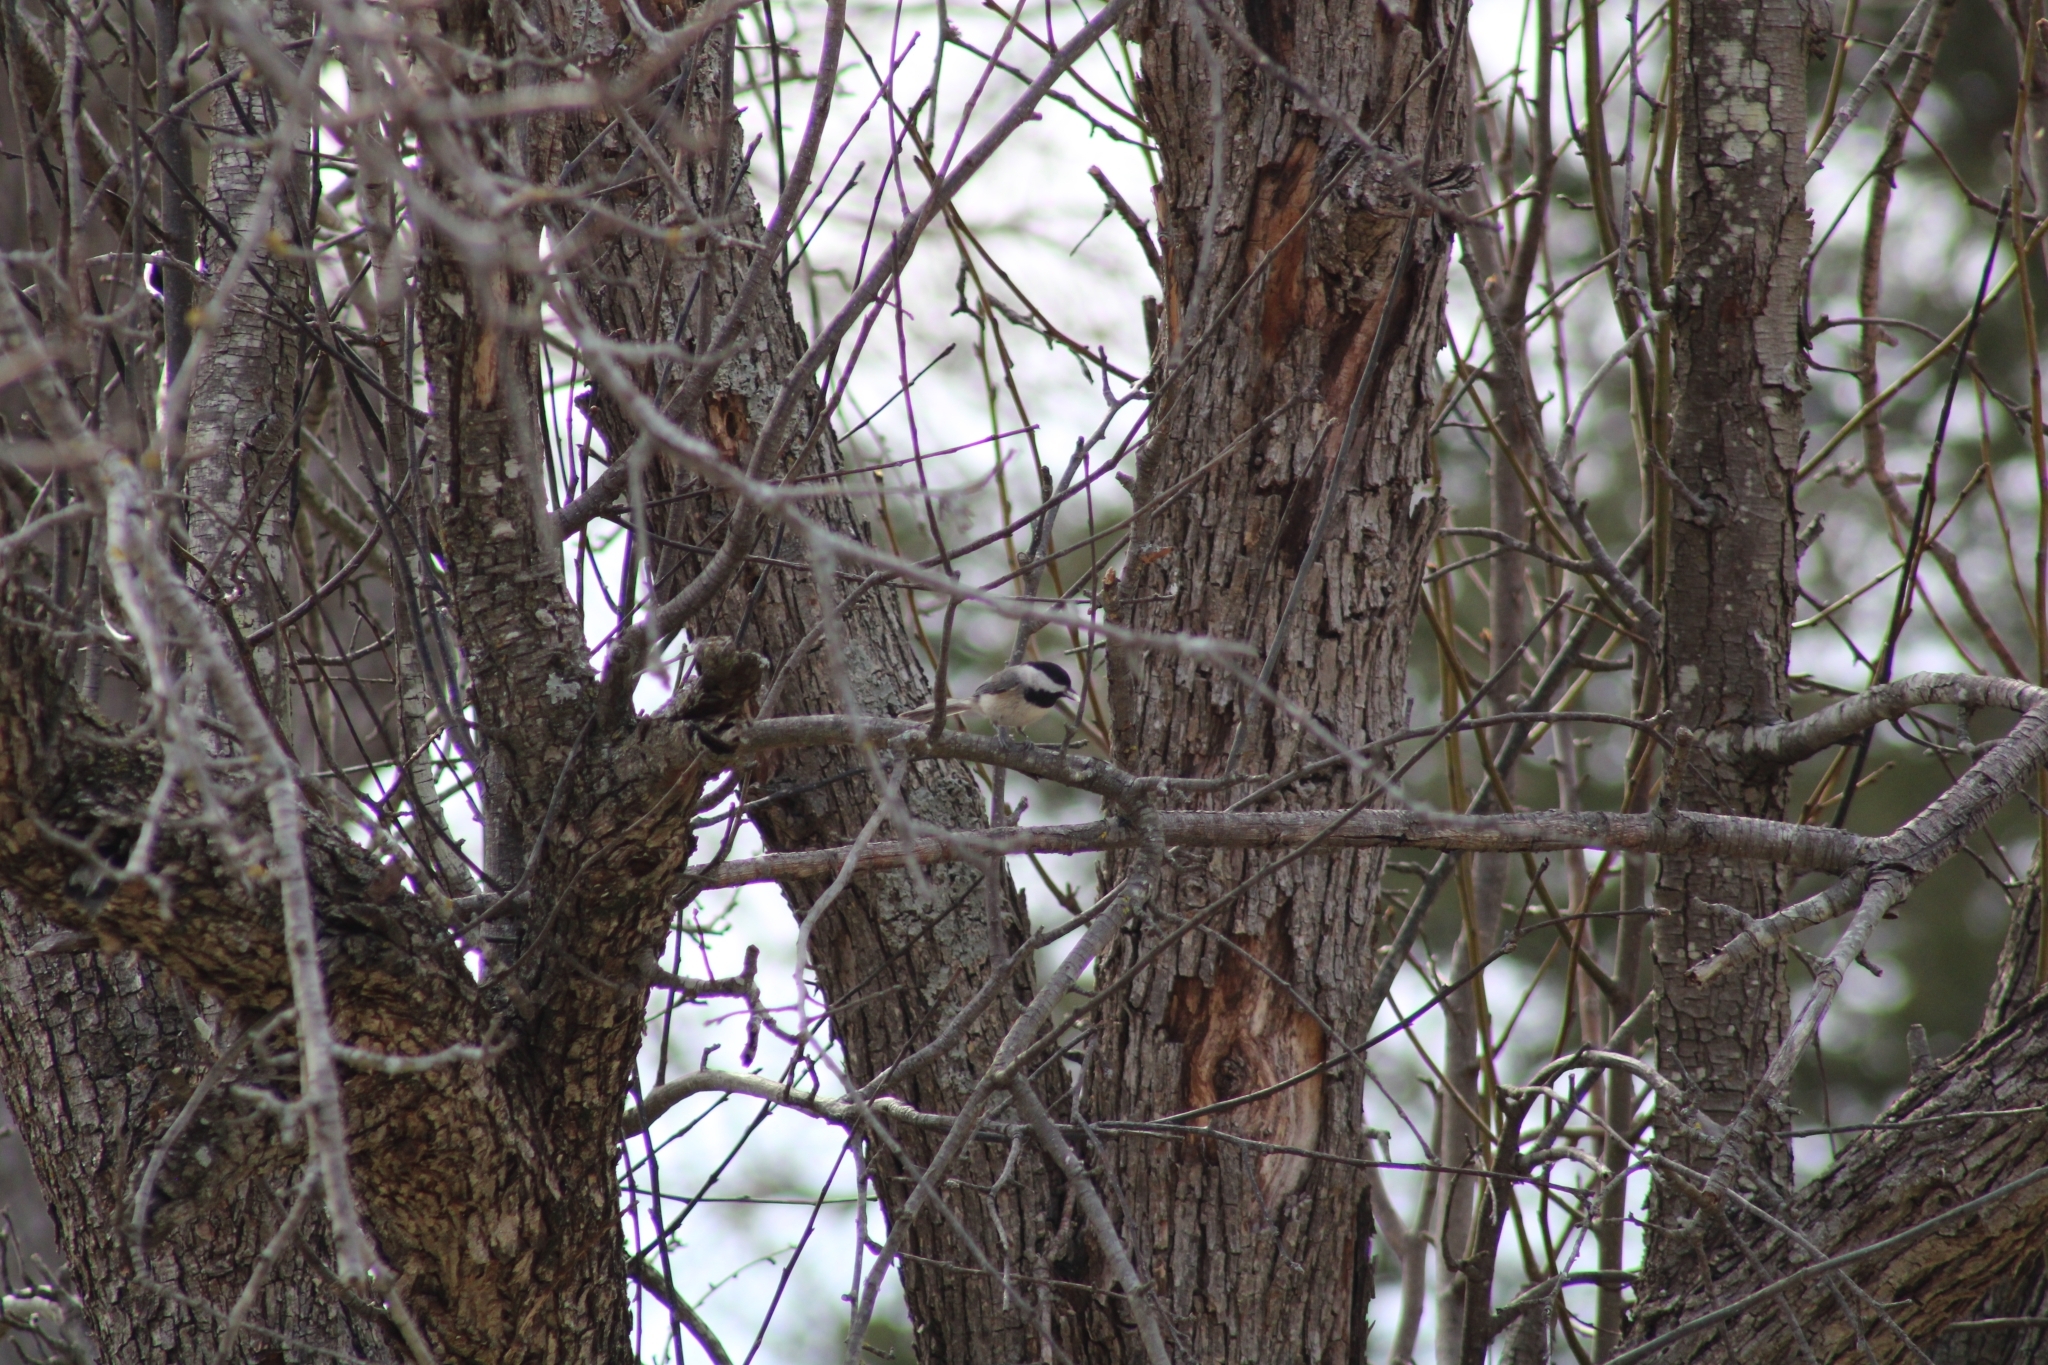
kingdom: Animalia
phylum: Chordata
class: Aves
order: Passeriformes
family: Paridae
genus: Poecile
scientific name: Poecile carolinensis
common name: Carolina chickadee
